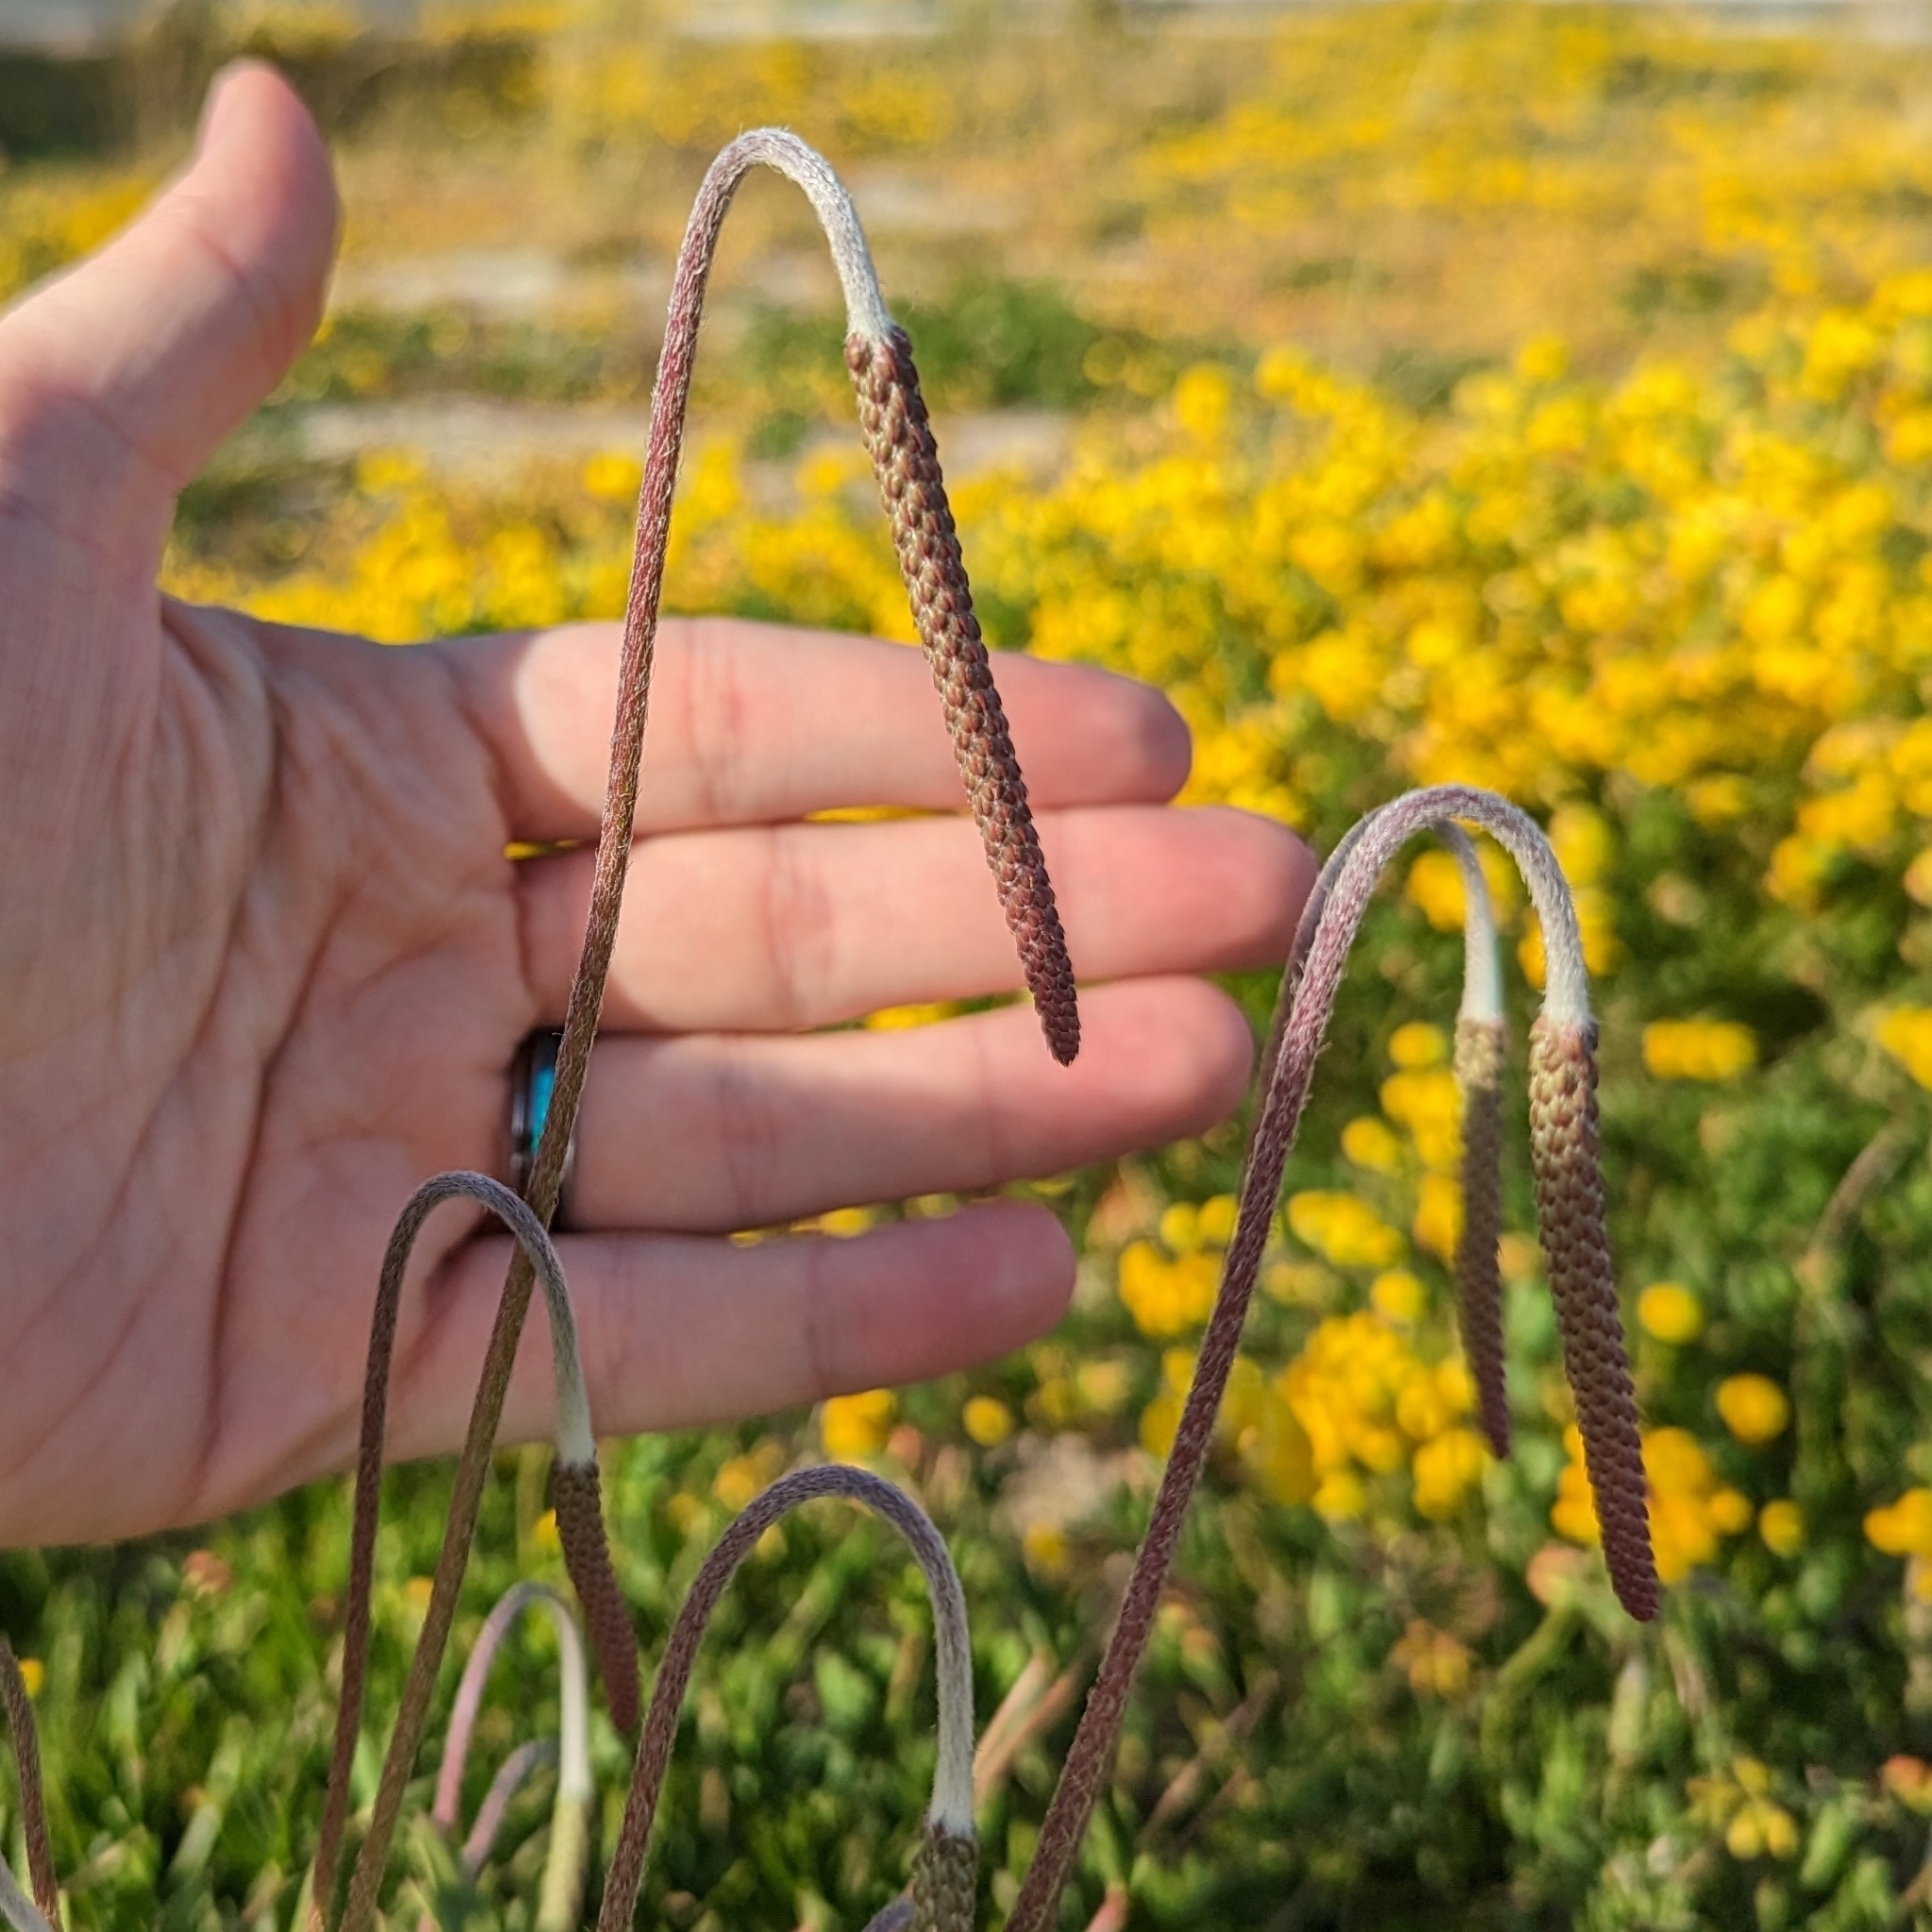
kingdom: Plantae
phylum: Tracheophyta
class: Magnoliopsida
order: Lamiales
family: Plantaginaceae
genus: Plantago
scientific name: Plantago subnuda
